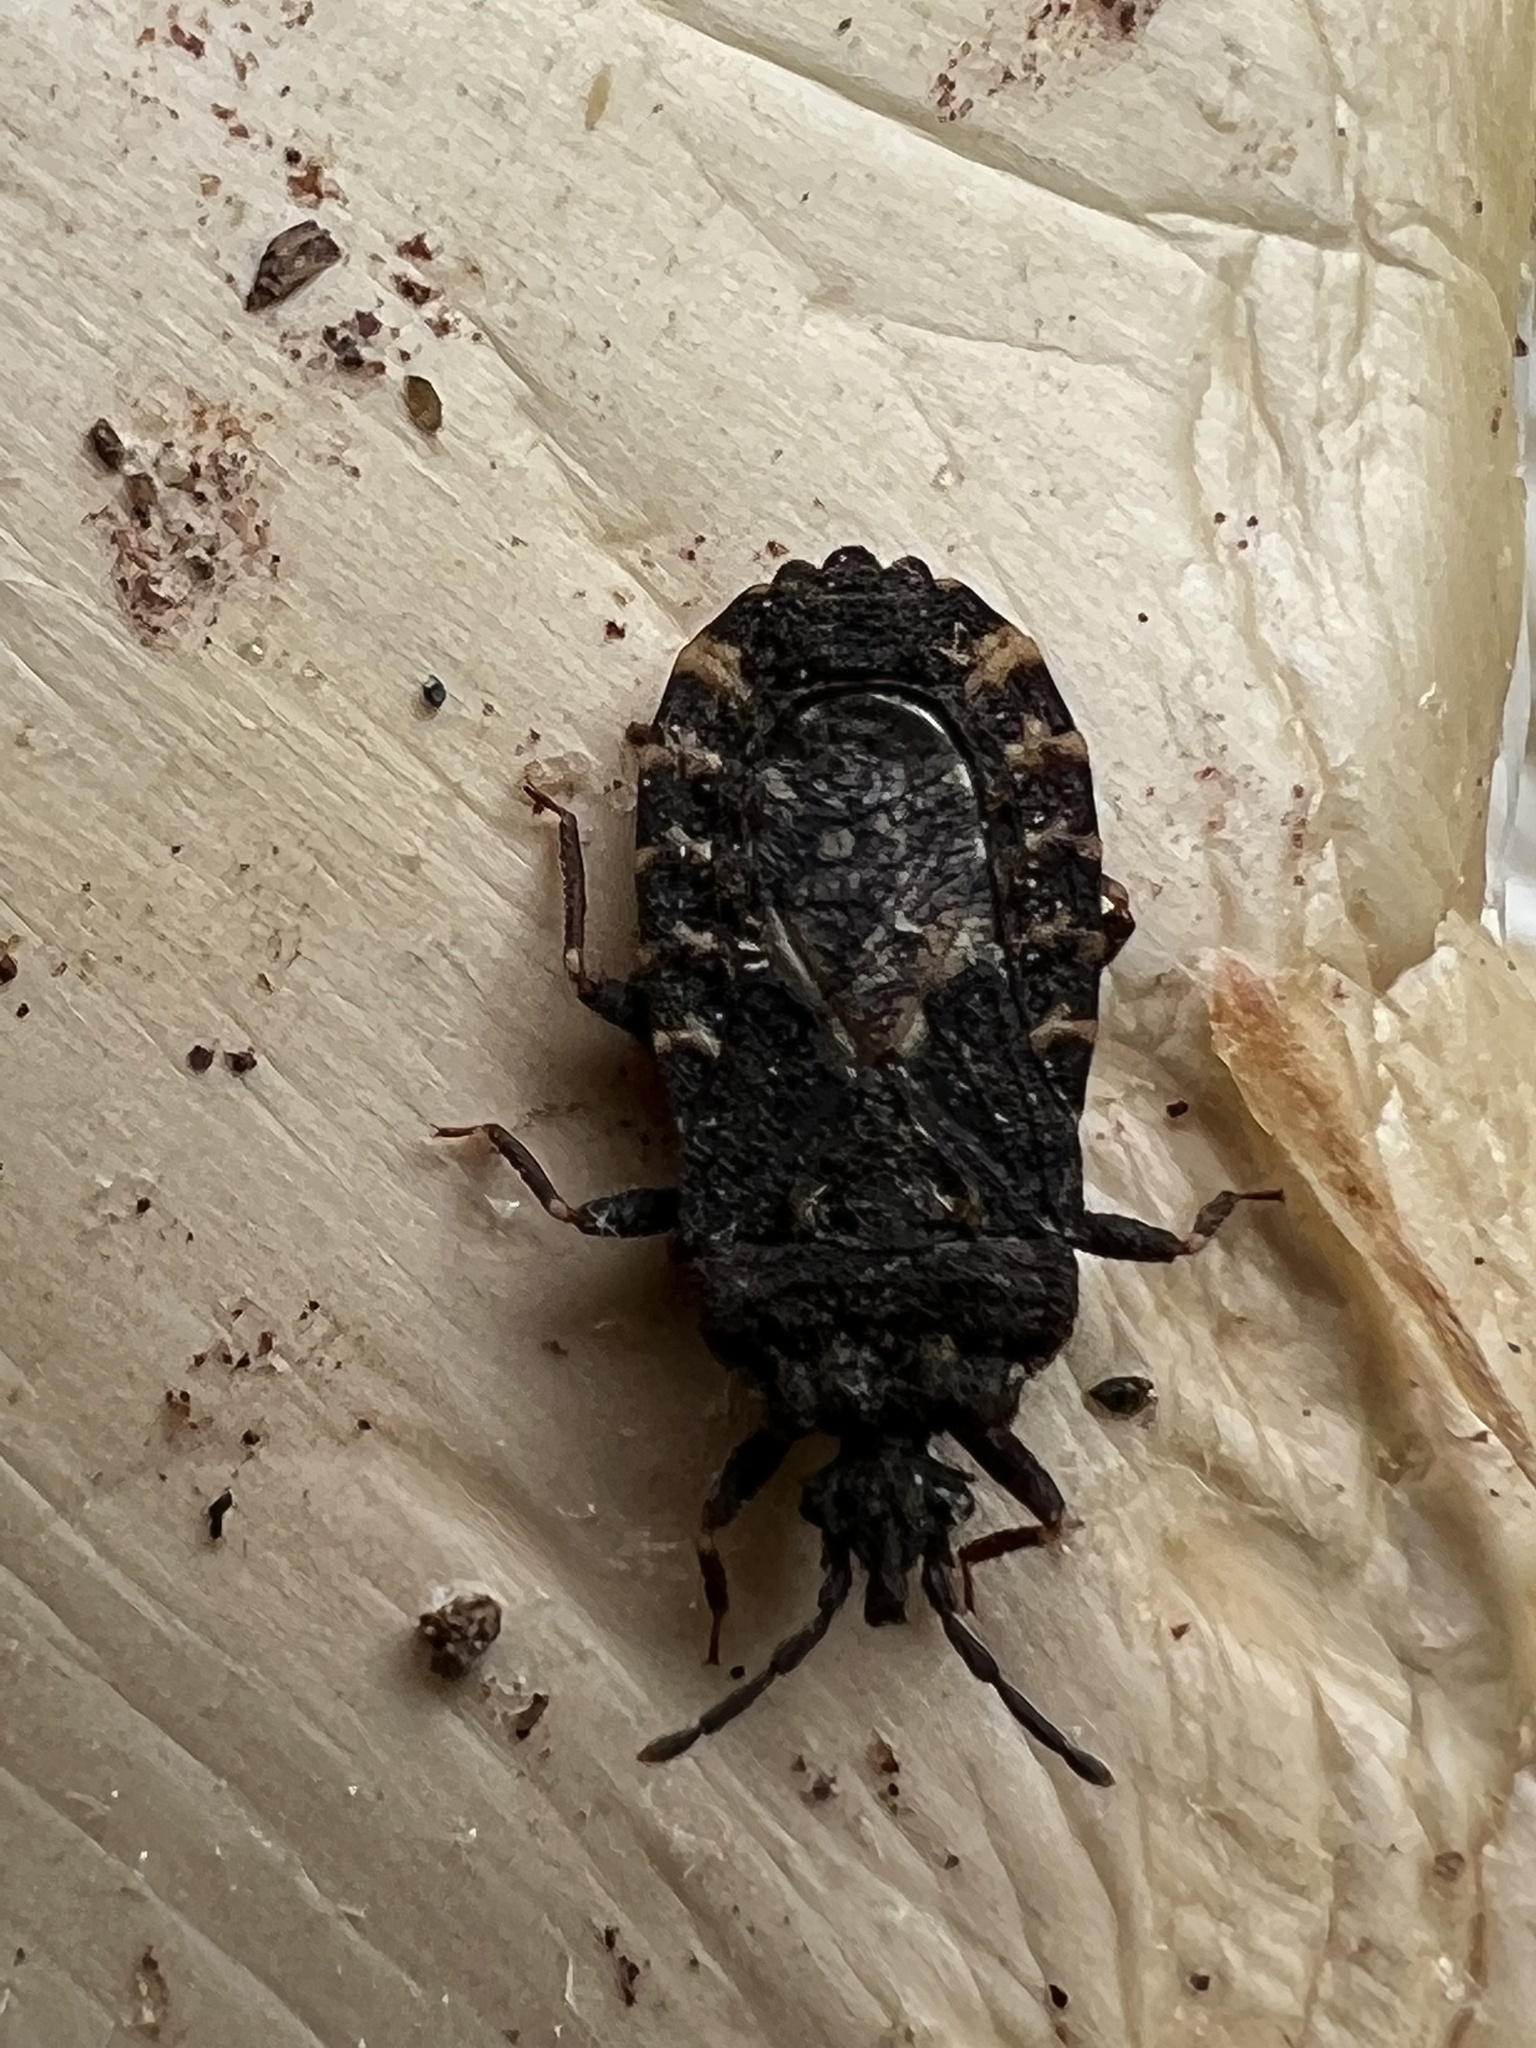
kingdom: Animalia
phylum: Arthropoda
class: Insecta
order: Hemiptera
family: Aradidae
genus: Mezira
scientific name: Mezira
